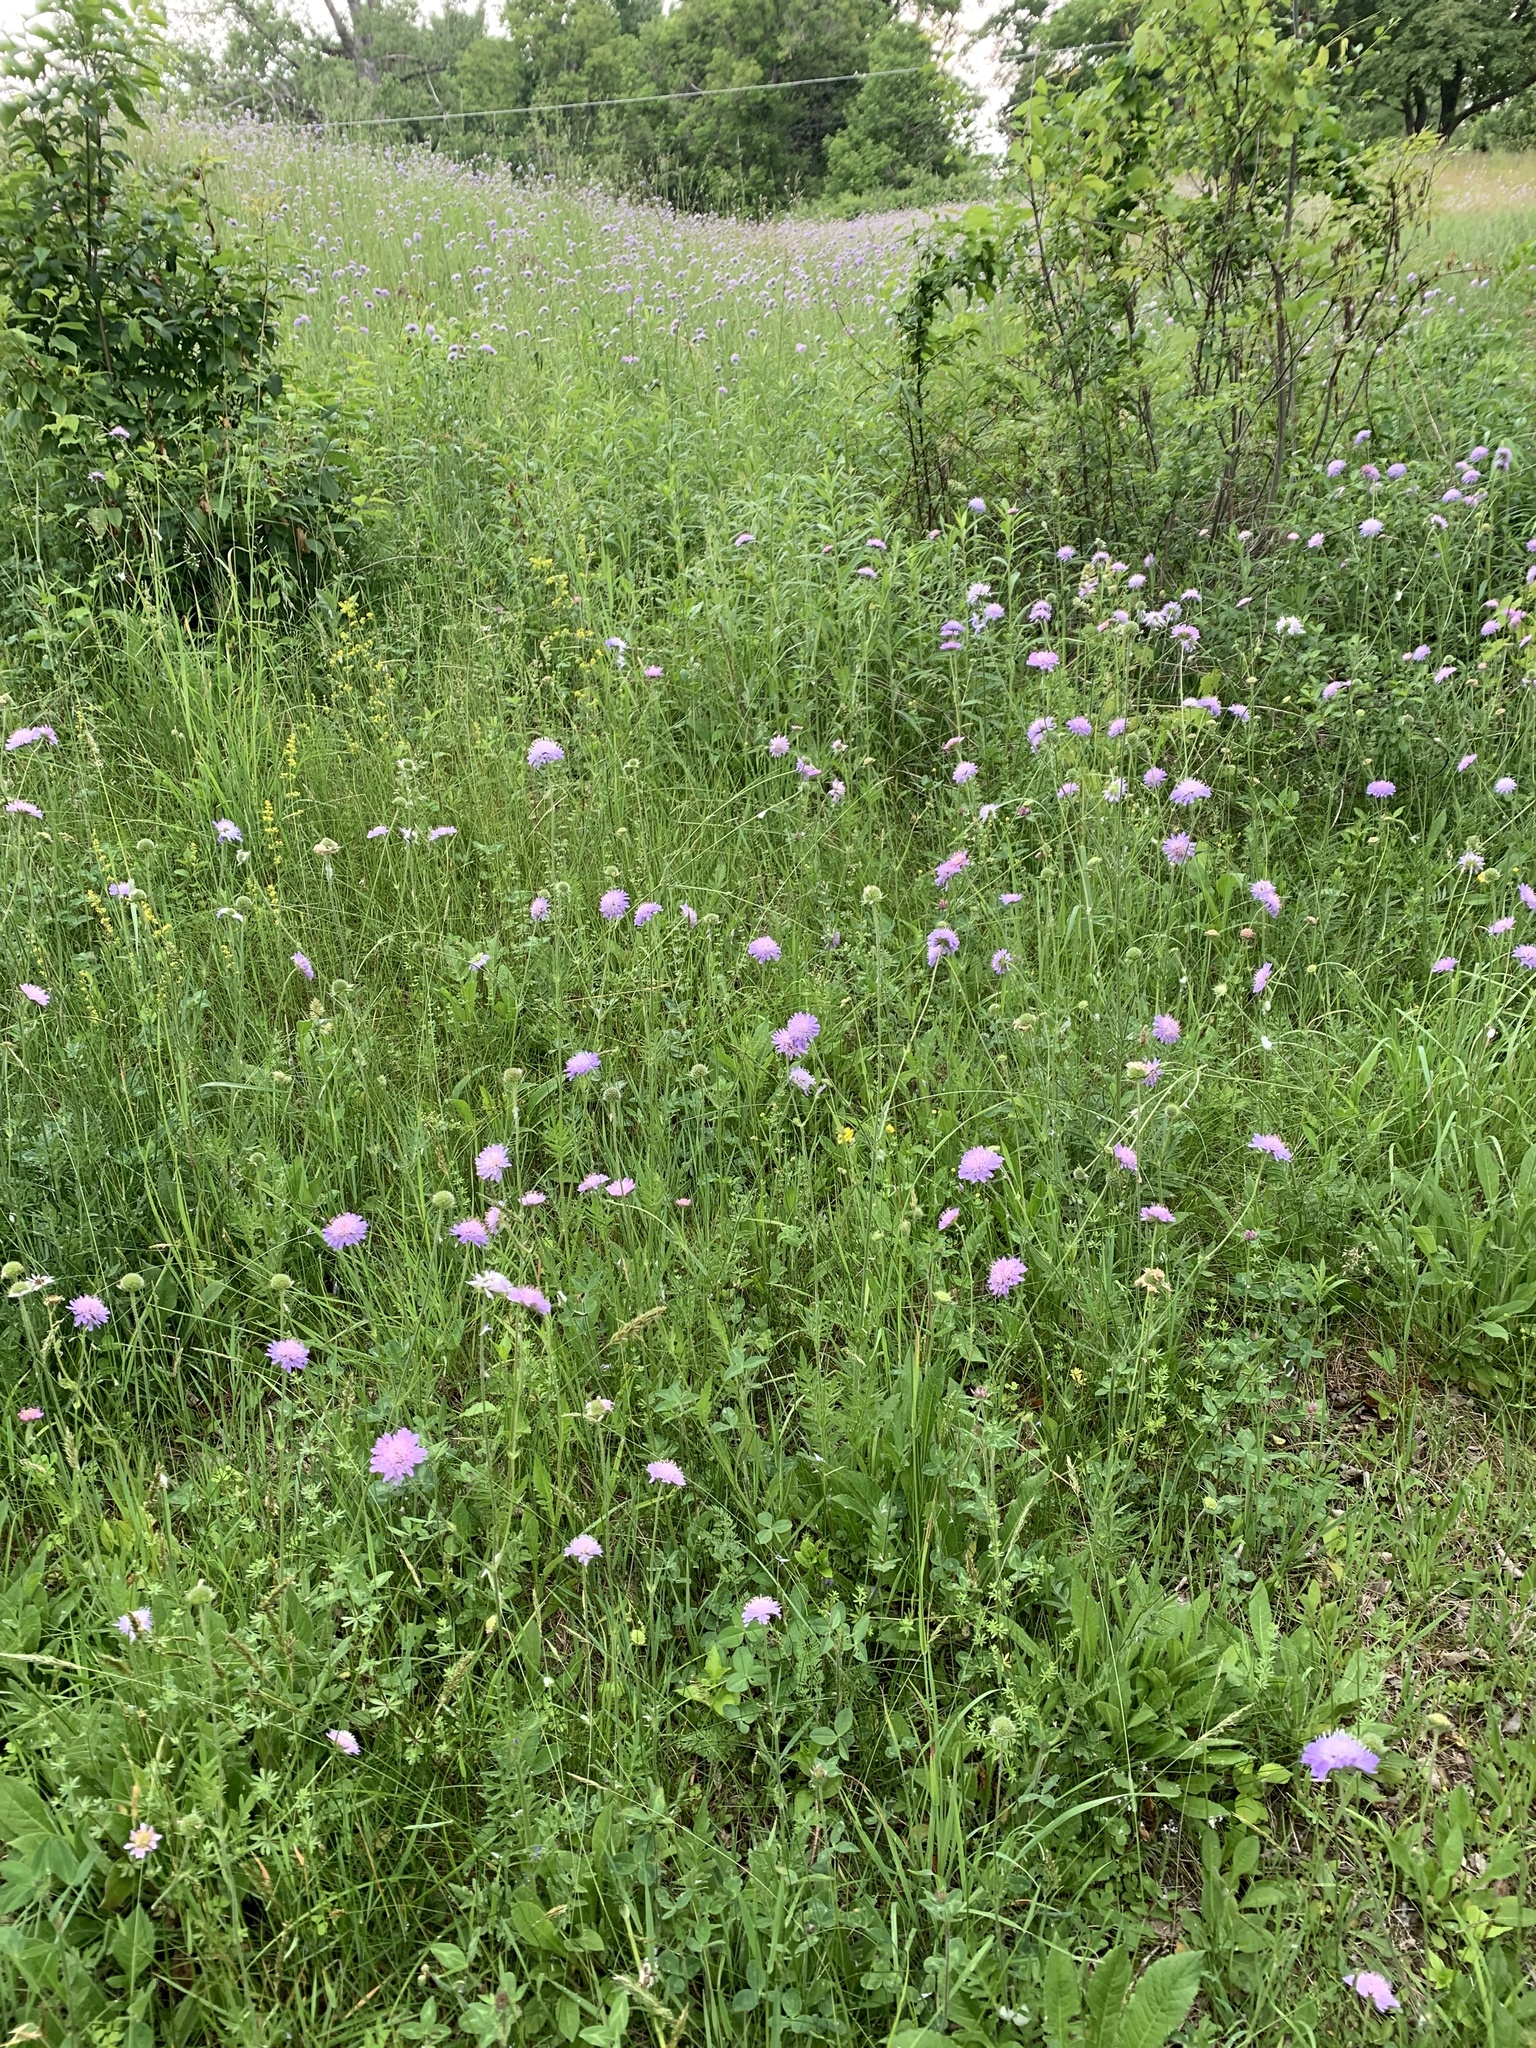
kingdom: Plantae
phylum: Tracheophyta
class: Magnoliopsida
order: Dipsacales
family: Caprifoliaceae
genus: Knautia
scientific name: Knautia arvensis
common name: Field scabiosa
